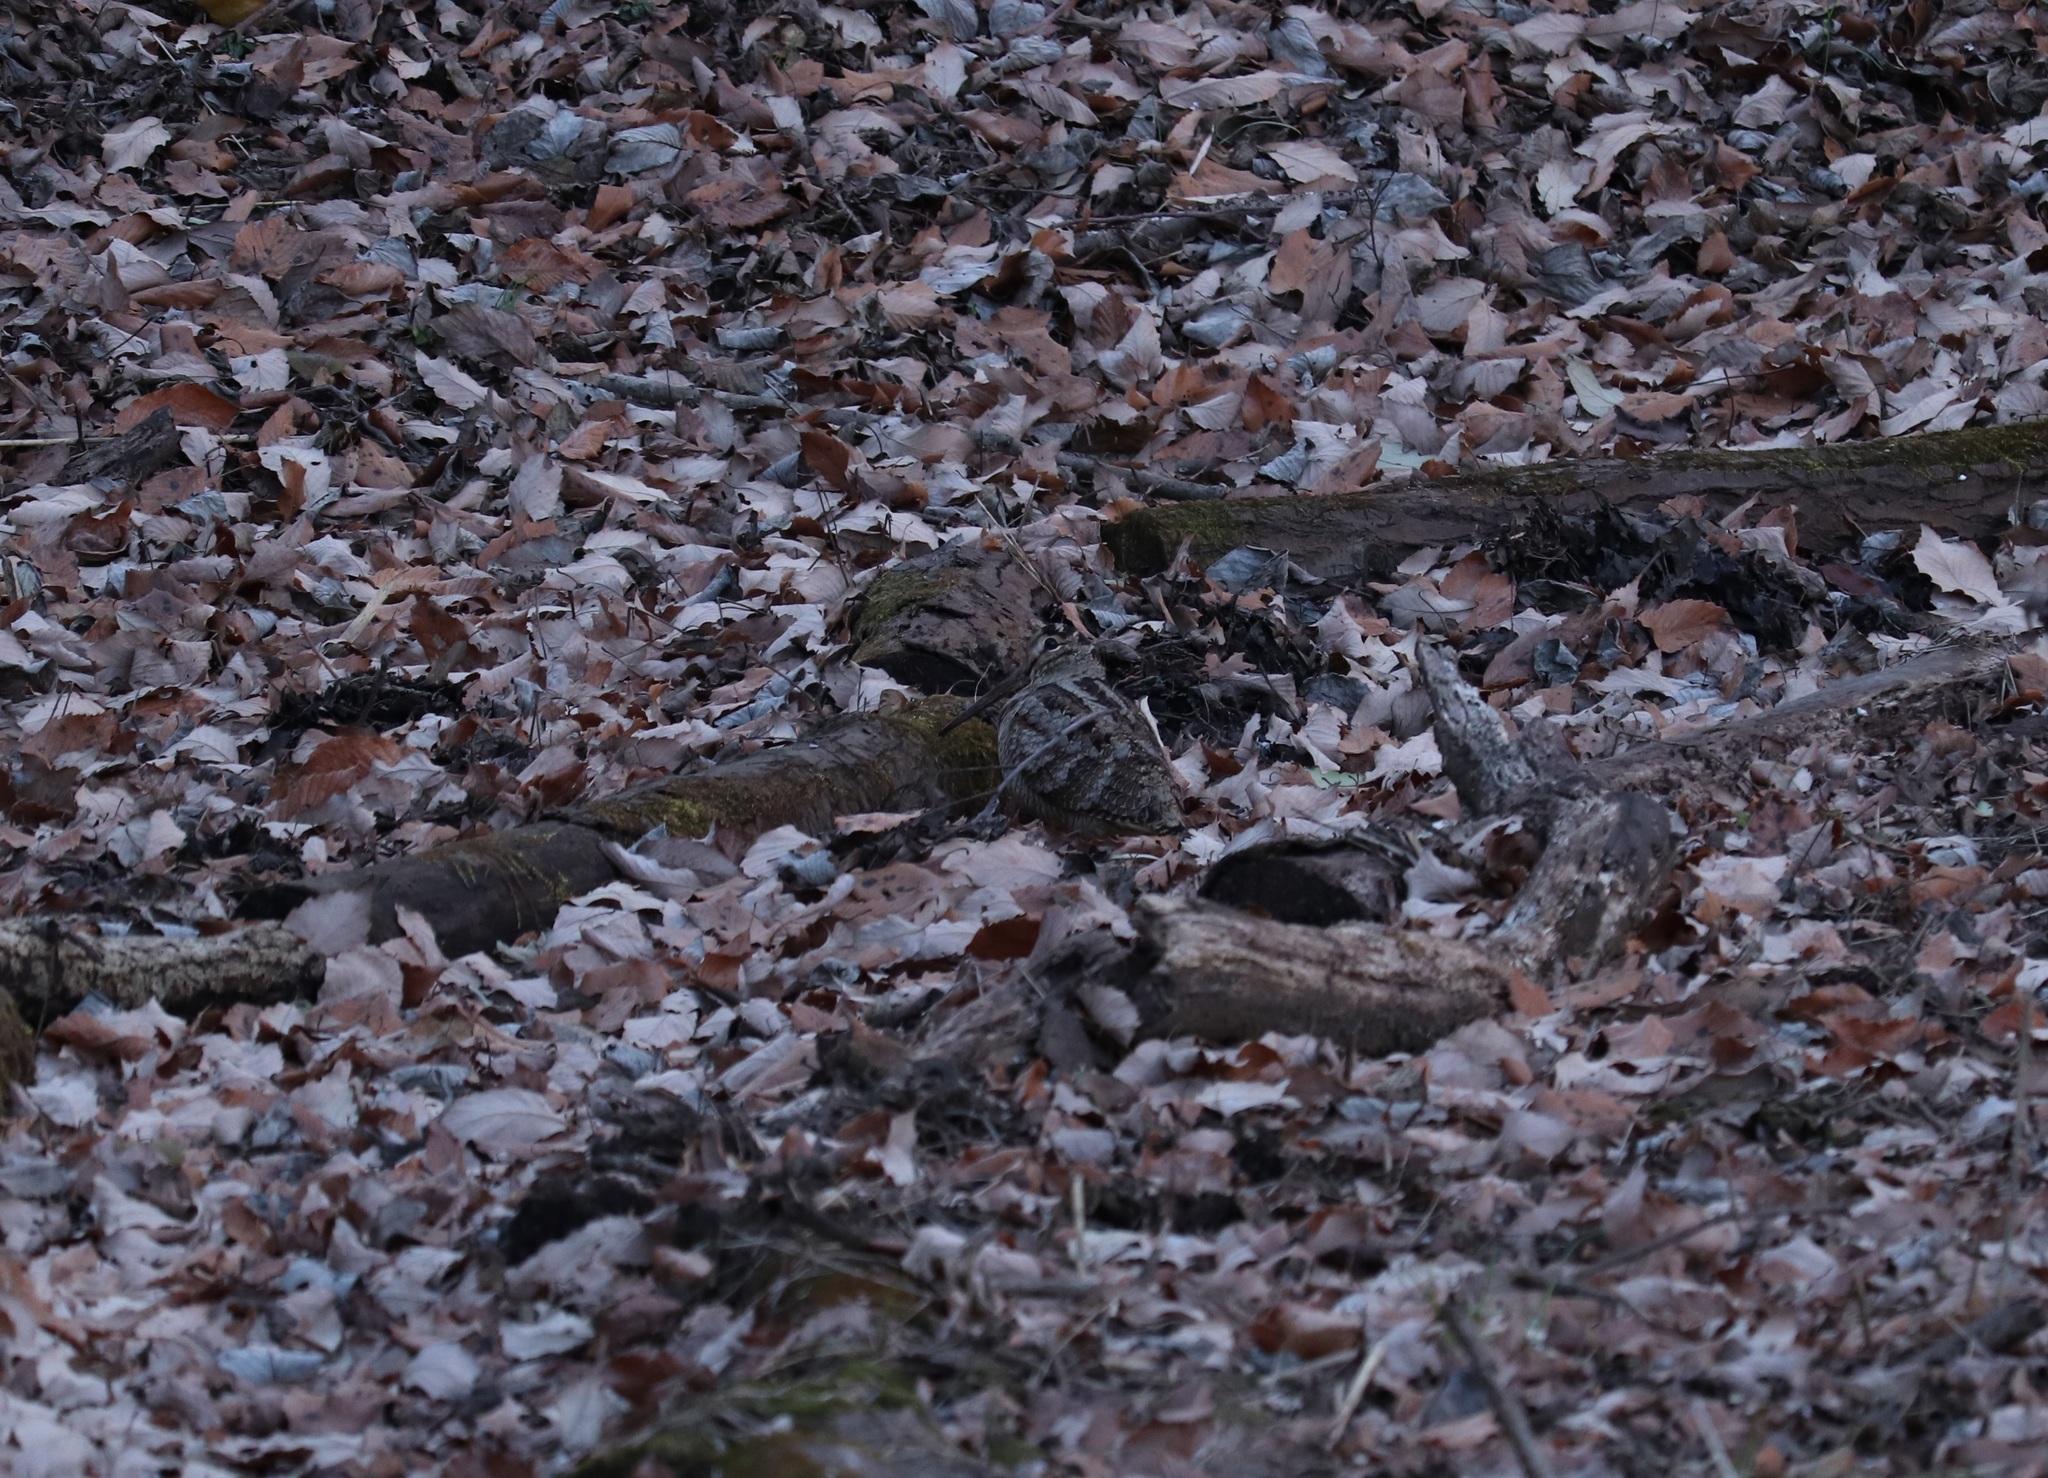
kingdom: Animalia
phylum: Chordata
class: Aves
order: Charadriiformes
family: Scolopacidae
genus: Scolopax
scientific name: Scolopax rusticola
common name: Eurasian woodcock
